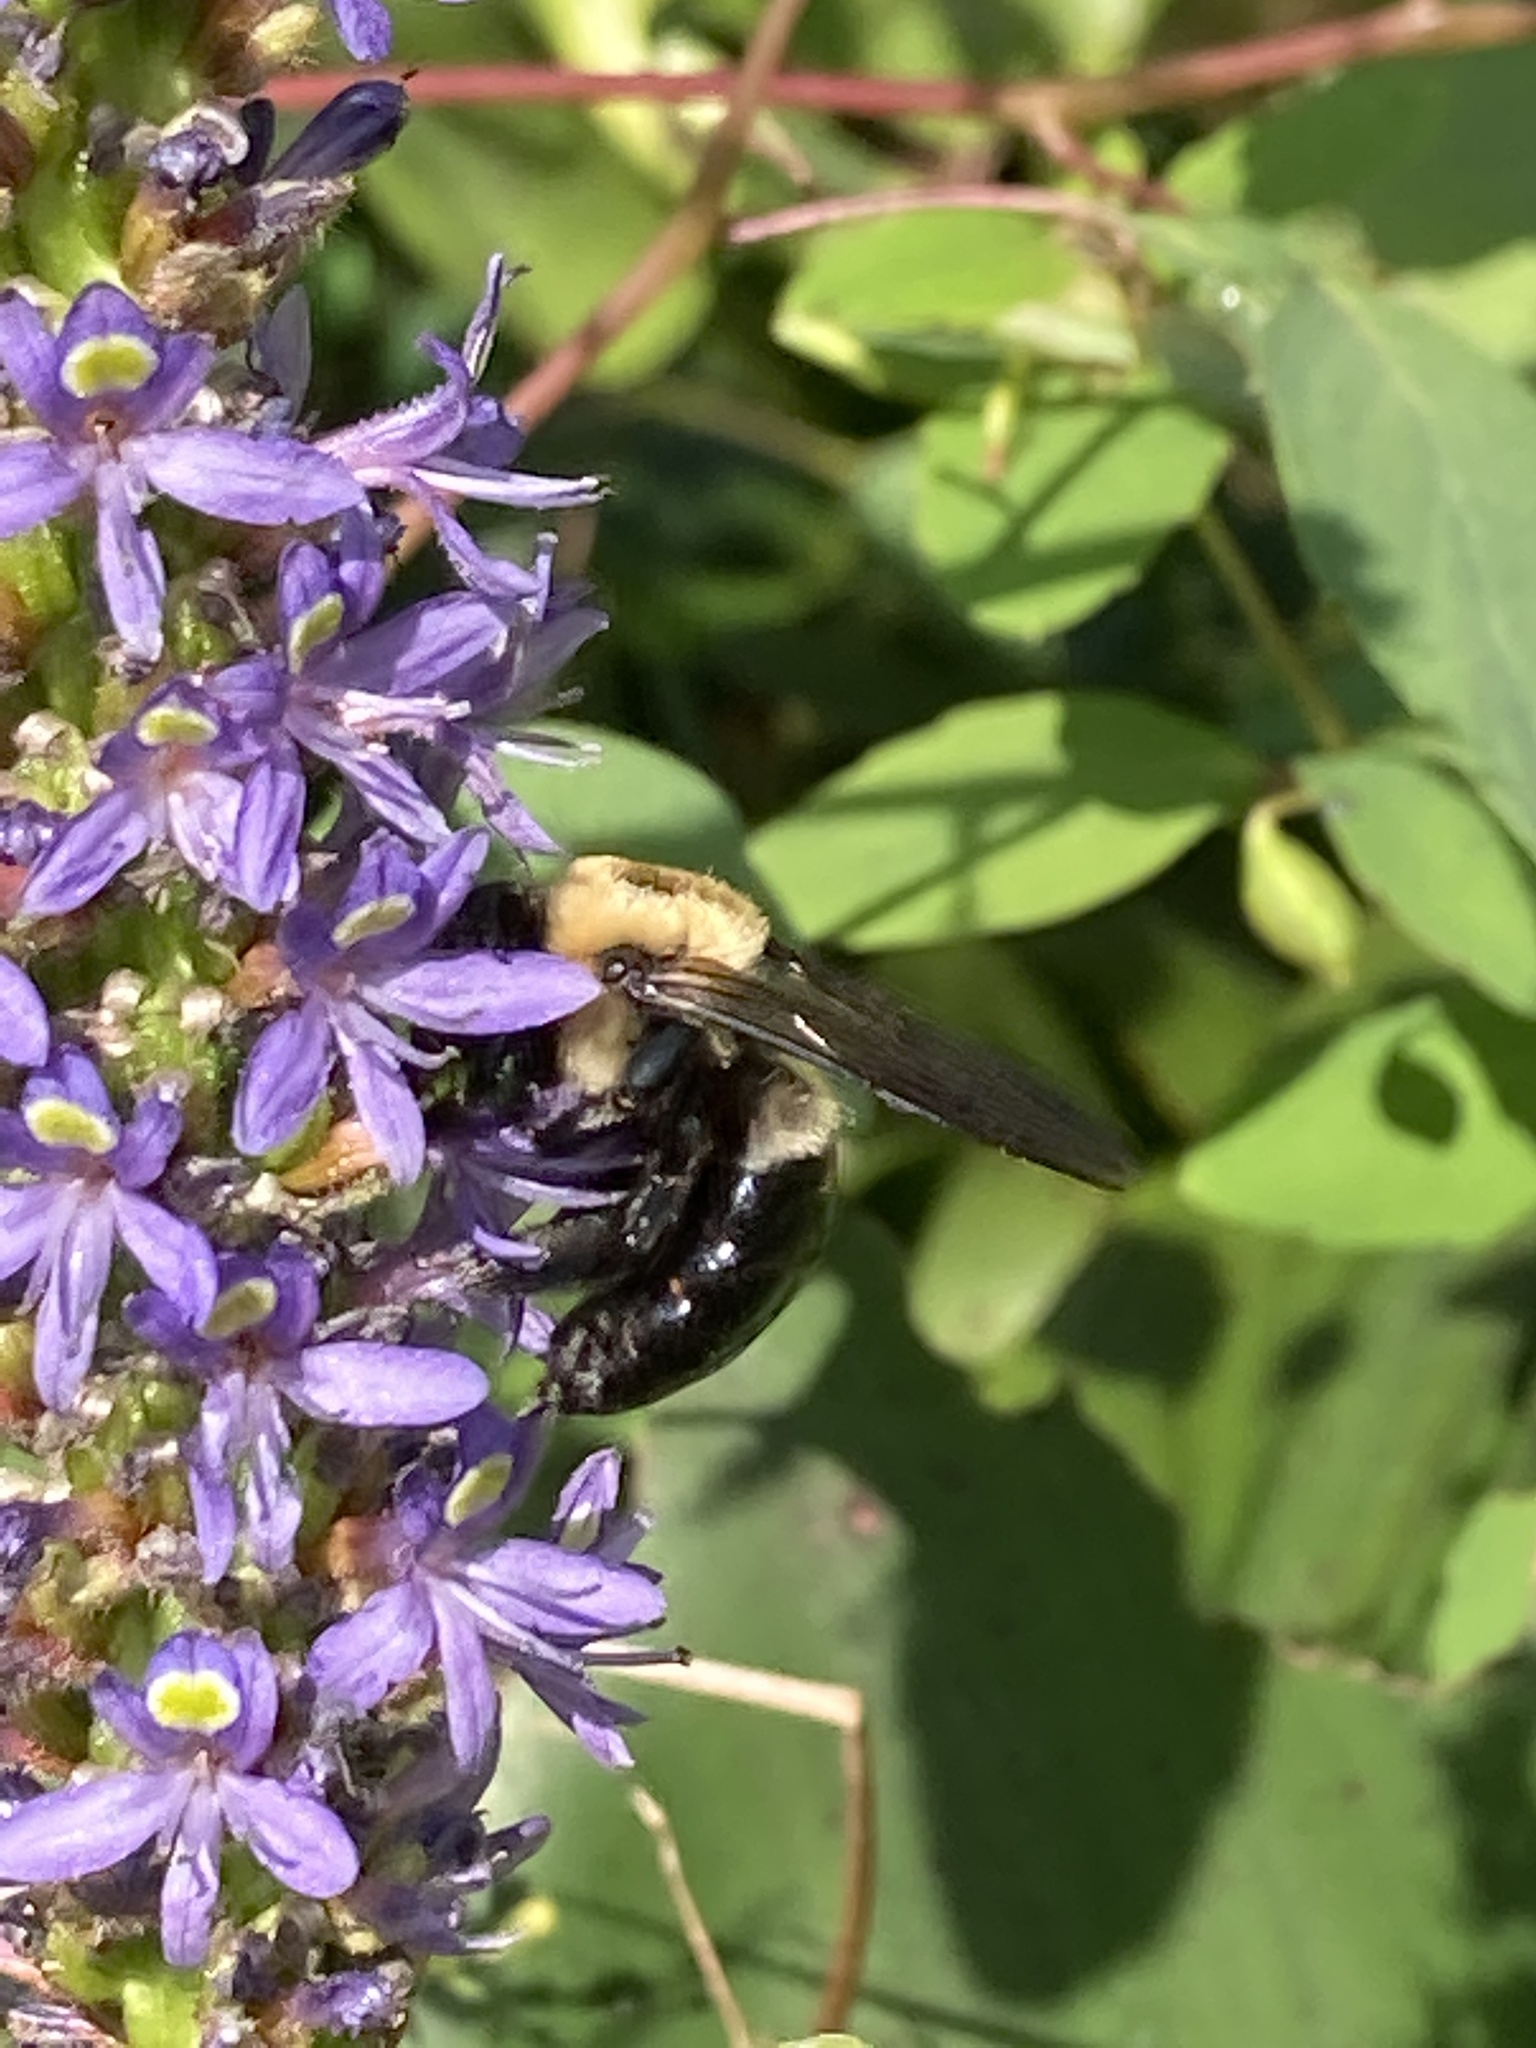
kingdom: Animalia
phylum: Arthropoda
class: Insecta
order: Hymenoptera
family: Apidae
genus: Xylocopa
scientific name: Xylocopa virginica
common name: Carpenter bee
